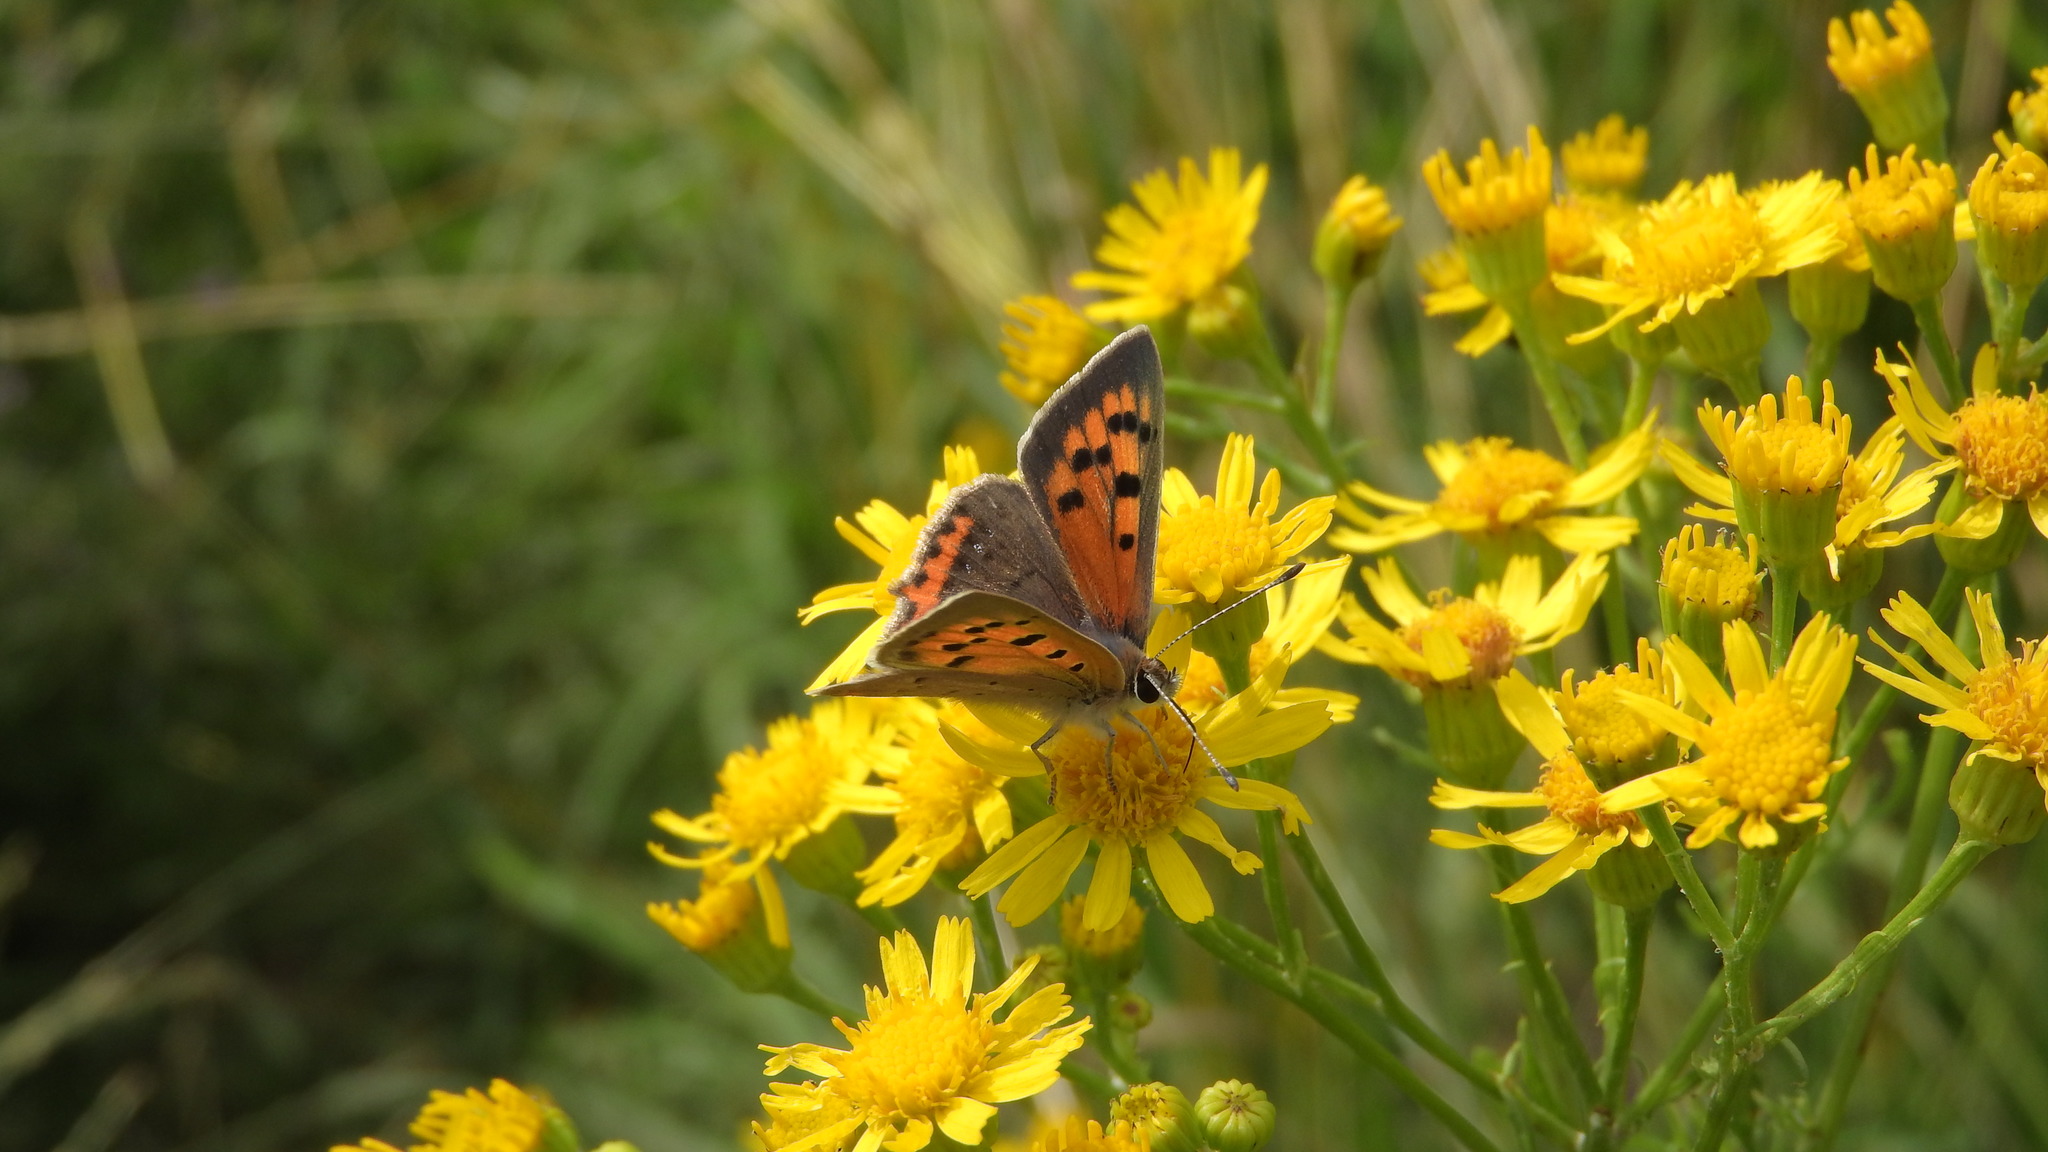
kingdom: Animalia
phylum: Arthropoda
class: Insecta
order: Lepidoptera
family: Lycaenidae
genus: Lycaena
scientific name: Lycaena phlaeas
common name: Small copper
